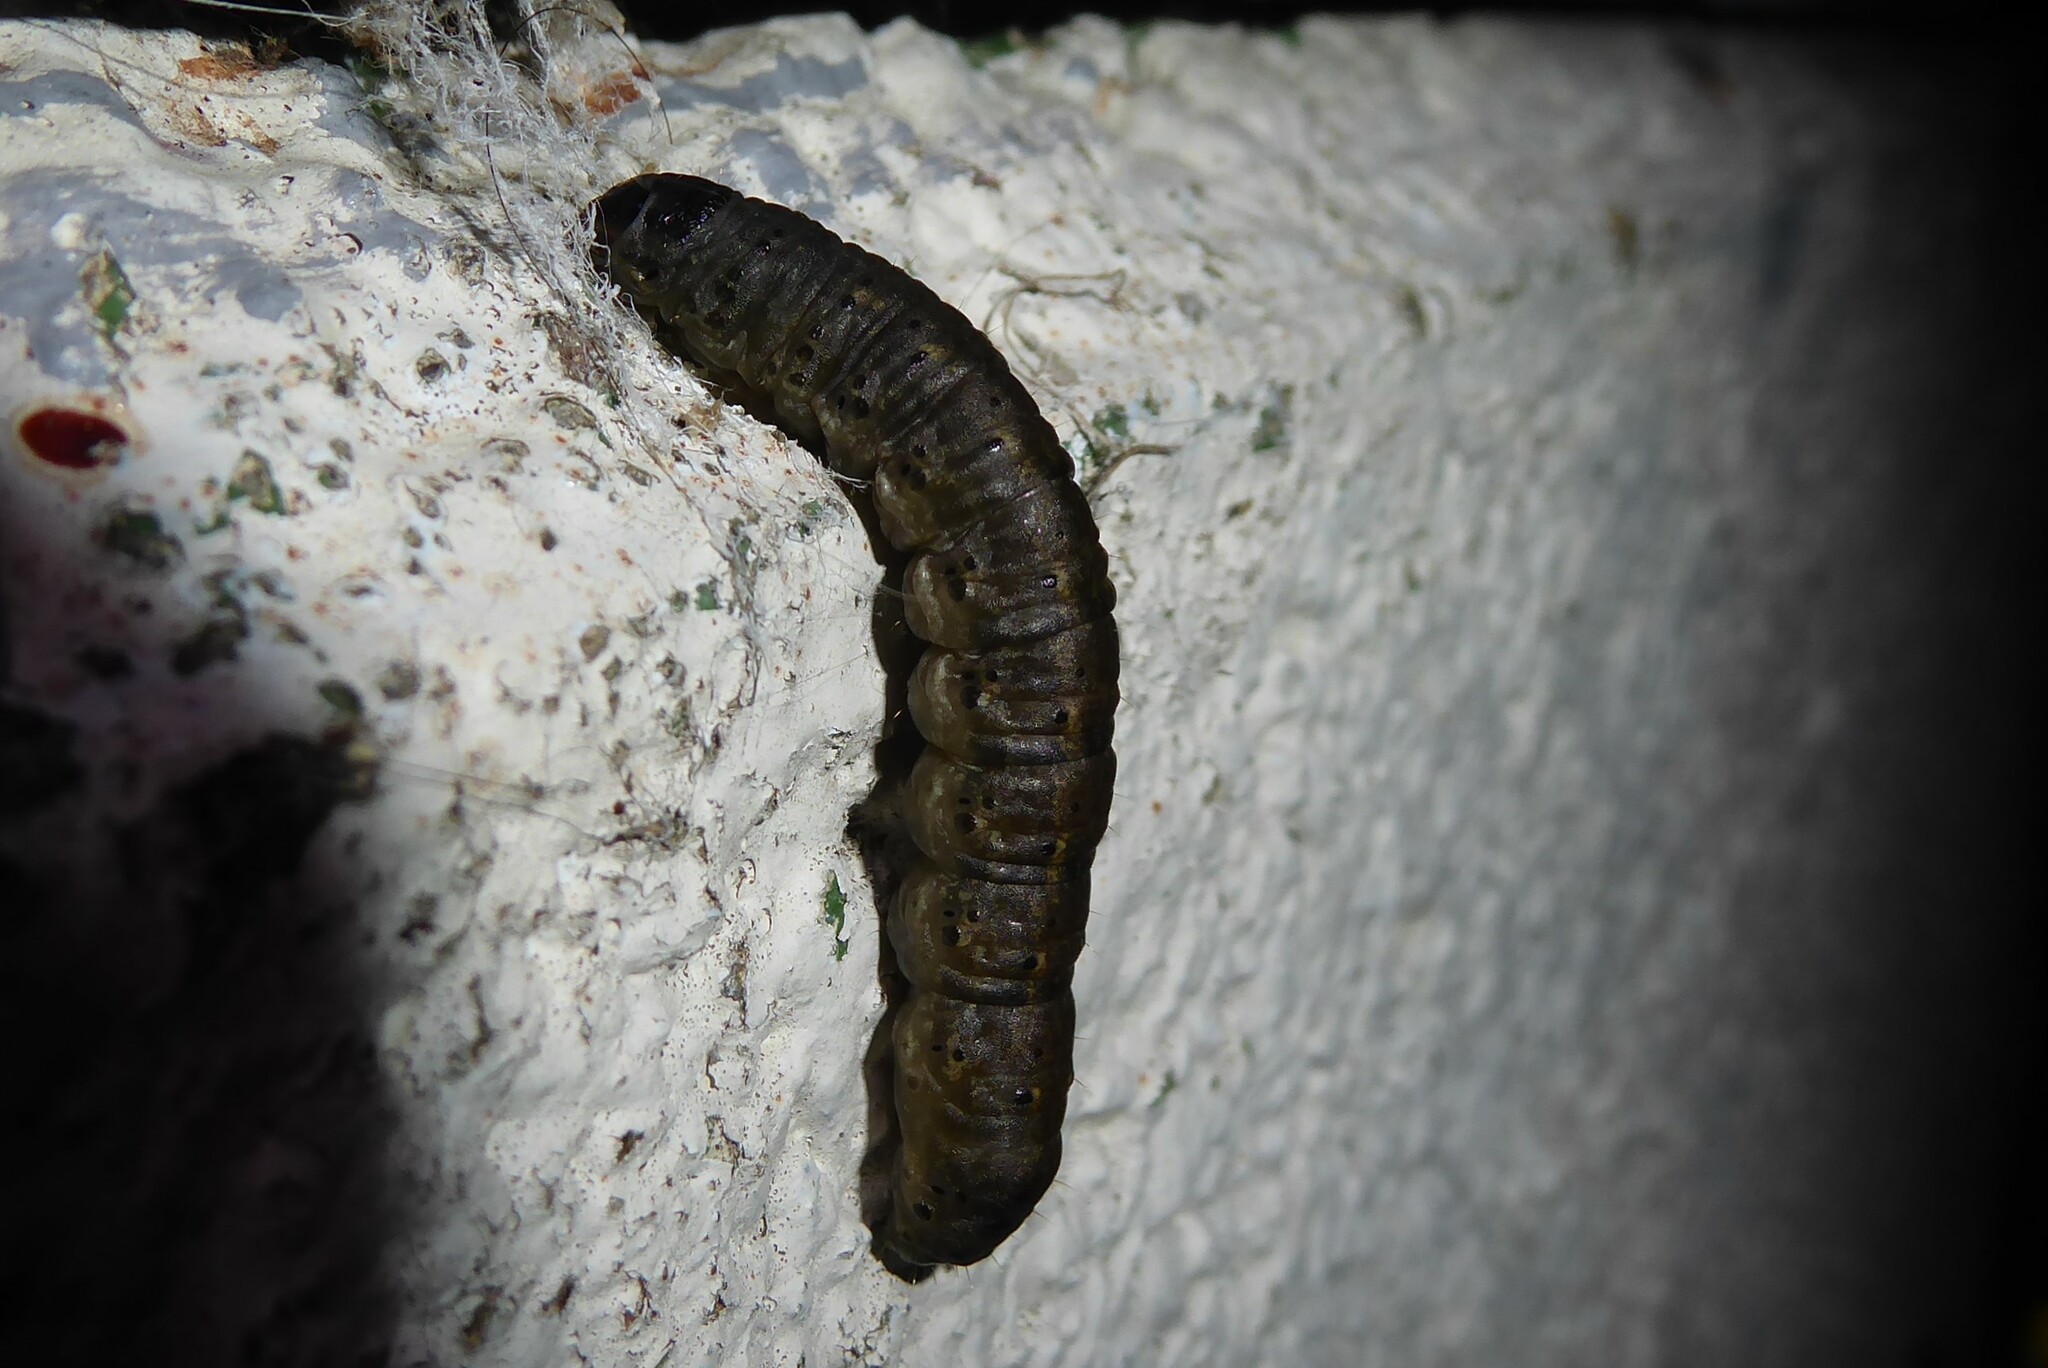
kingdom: Animalia
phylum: Arthropoda
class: Insecta
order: Lepidoptera
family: Noctuidae
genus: Agrotis
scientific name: Agrotis ipsilon
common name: Dark sword-grass
